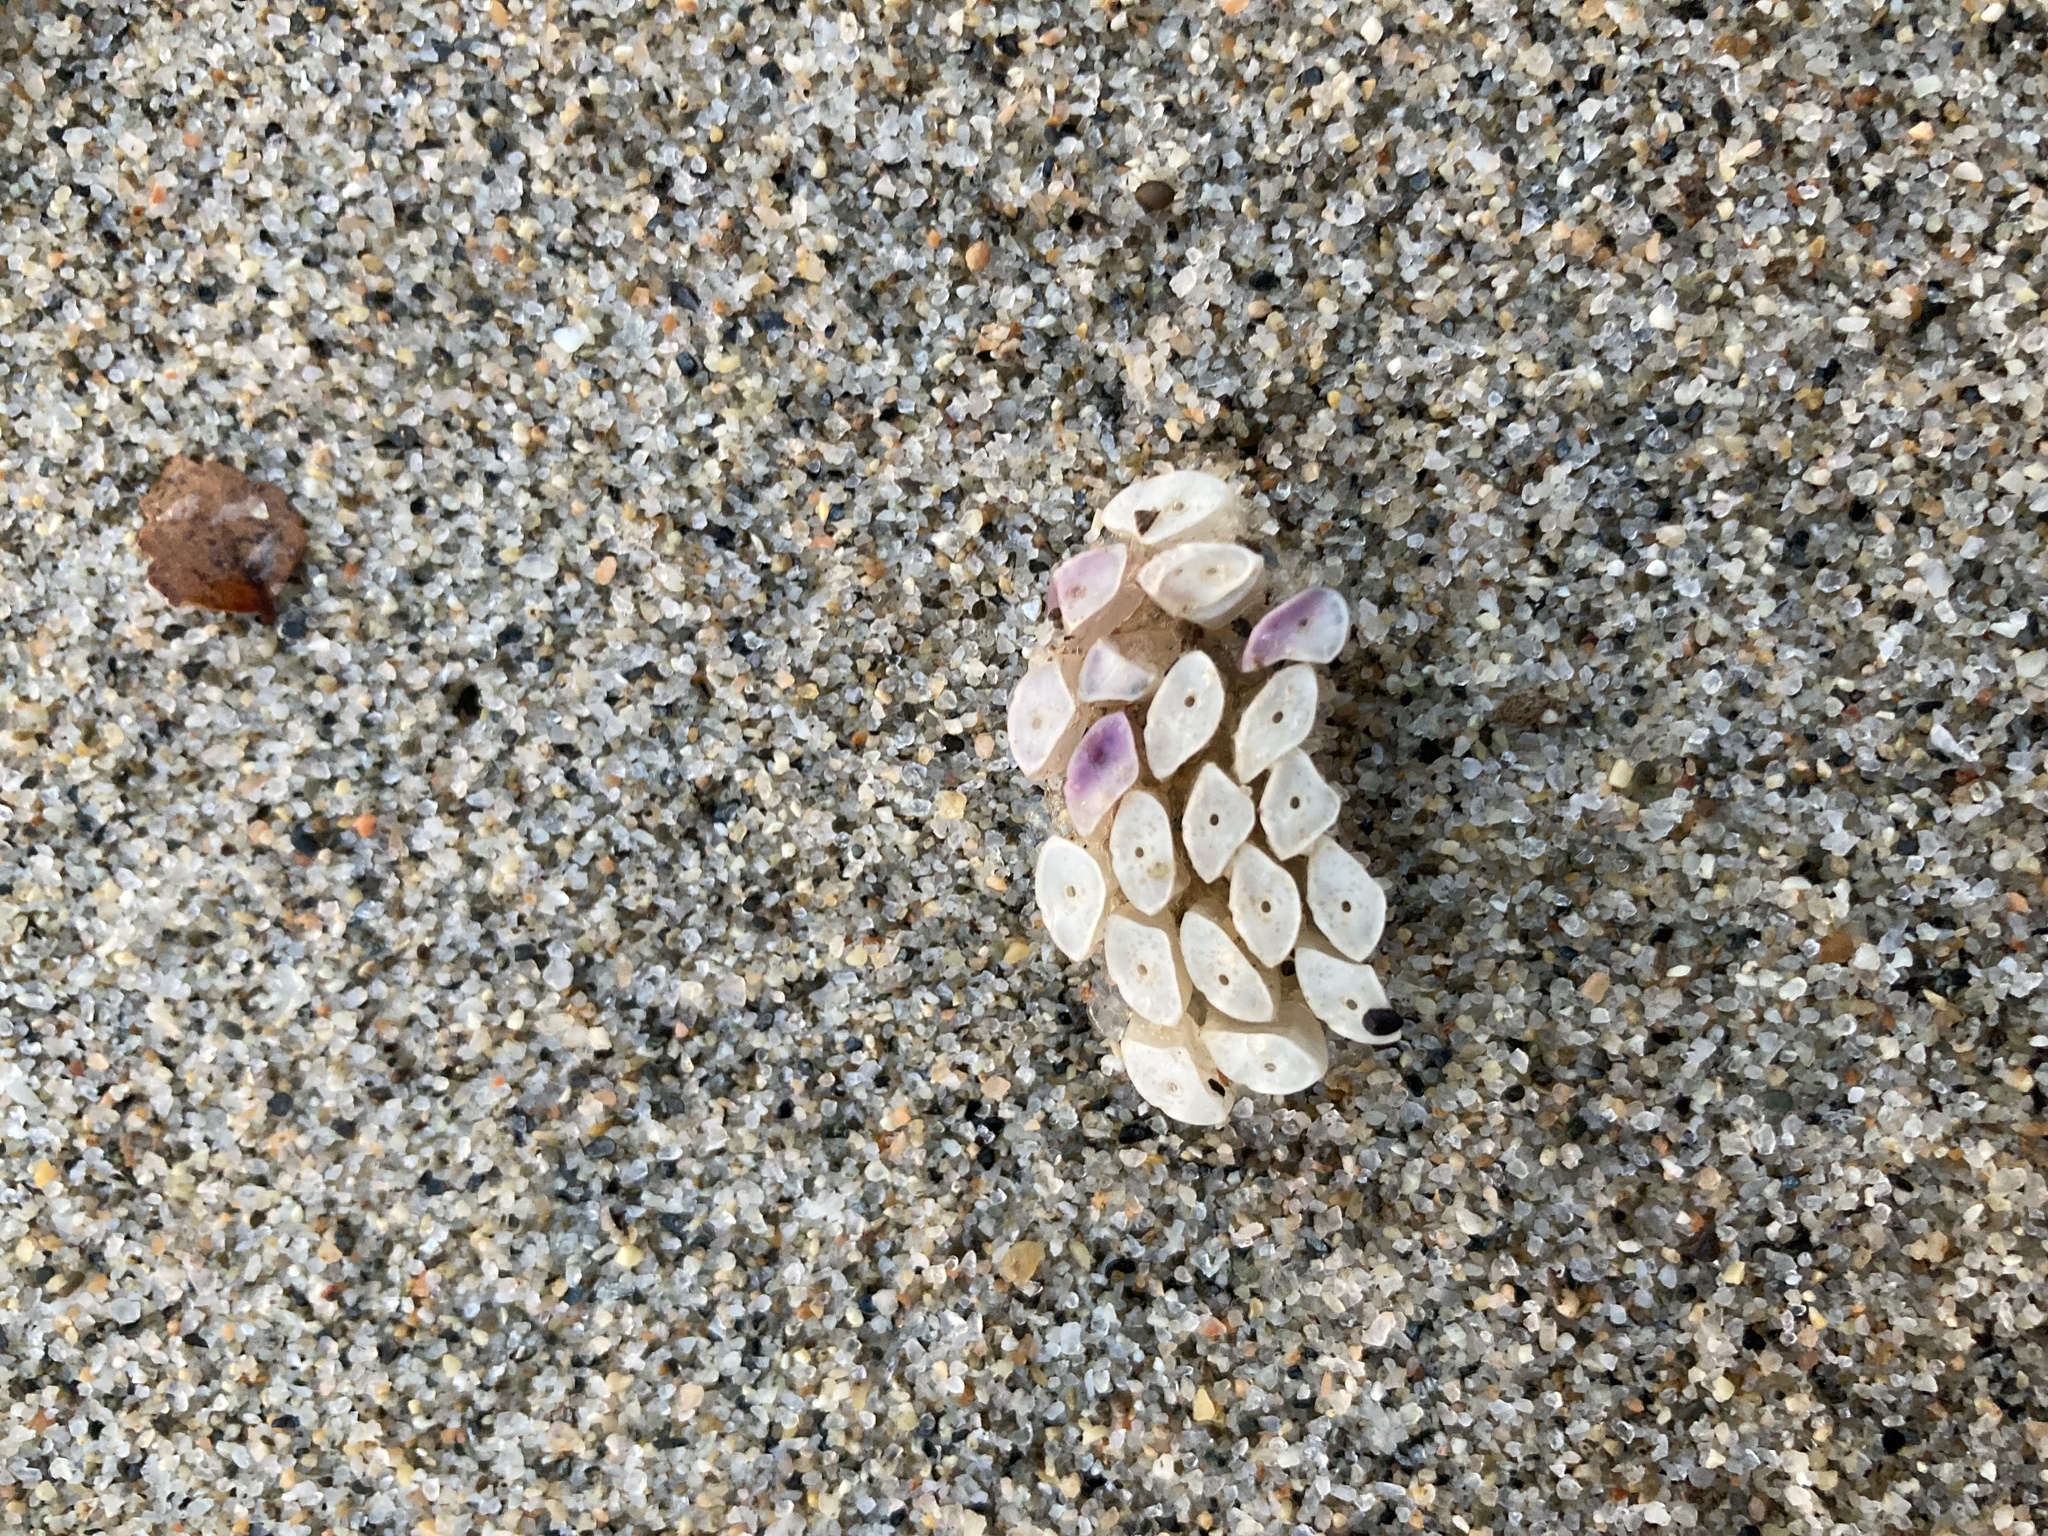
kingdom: Animalia
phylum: Mollusca
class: Gastropoda
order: Neogastropoda
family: Muricidae
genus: Dicathais
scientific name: Dicathais orbita
